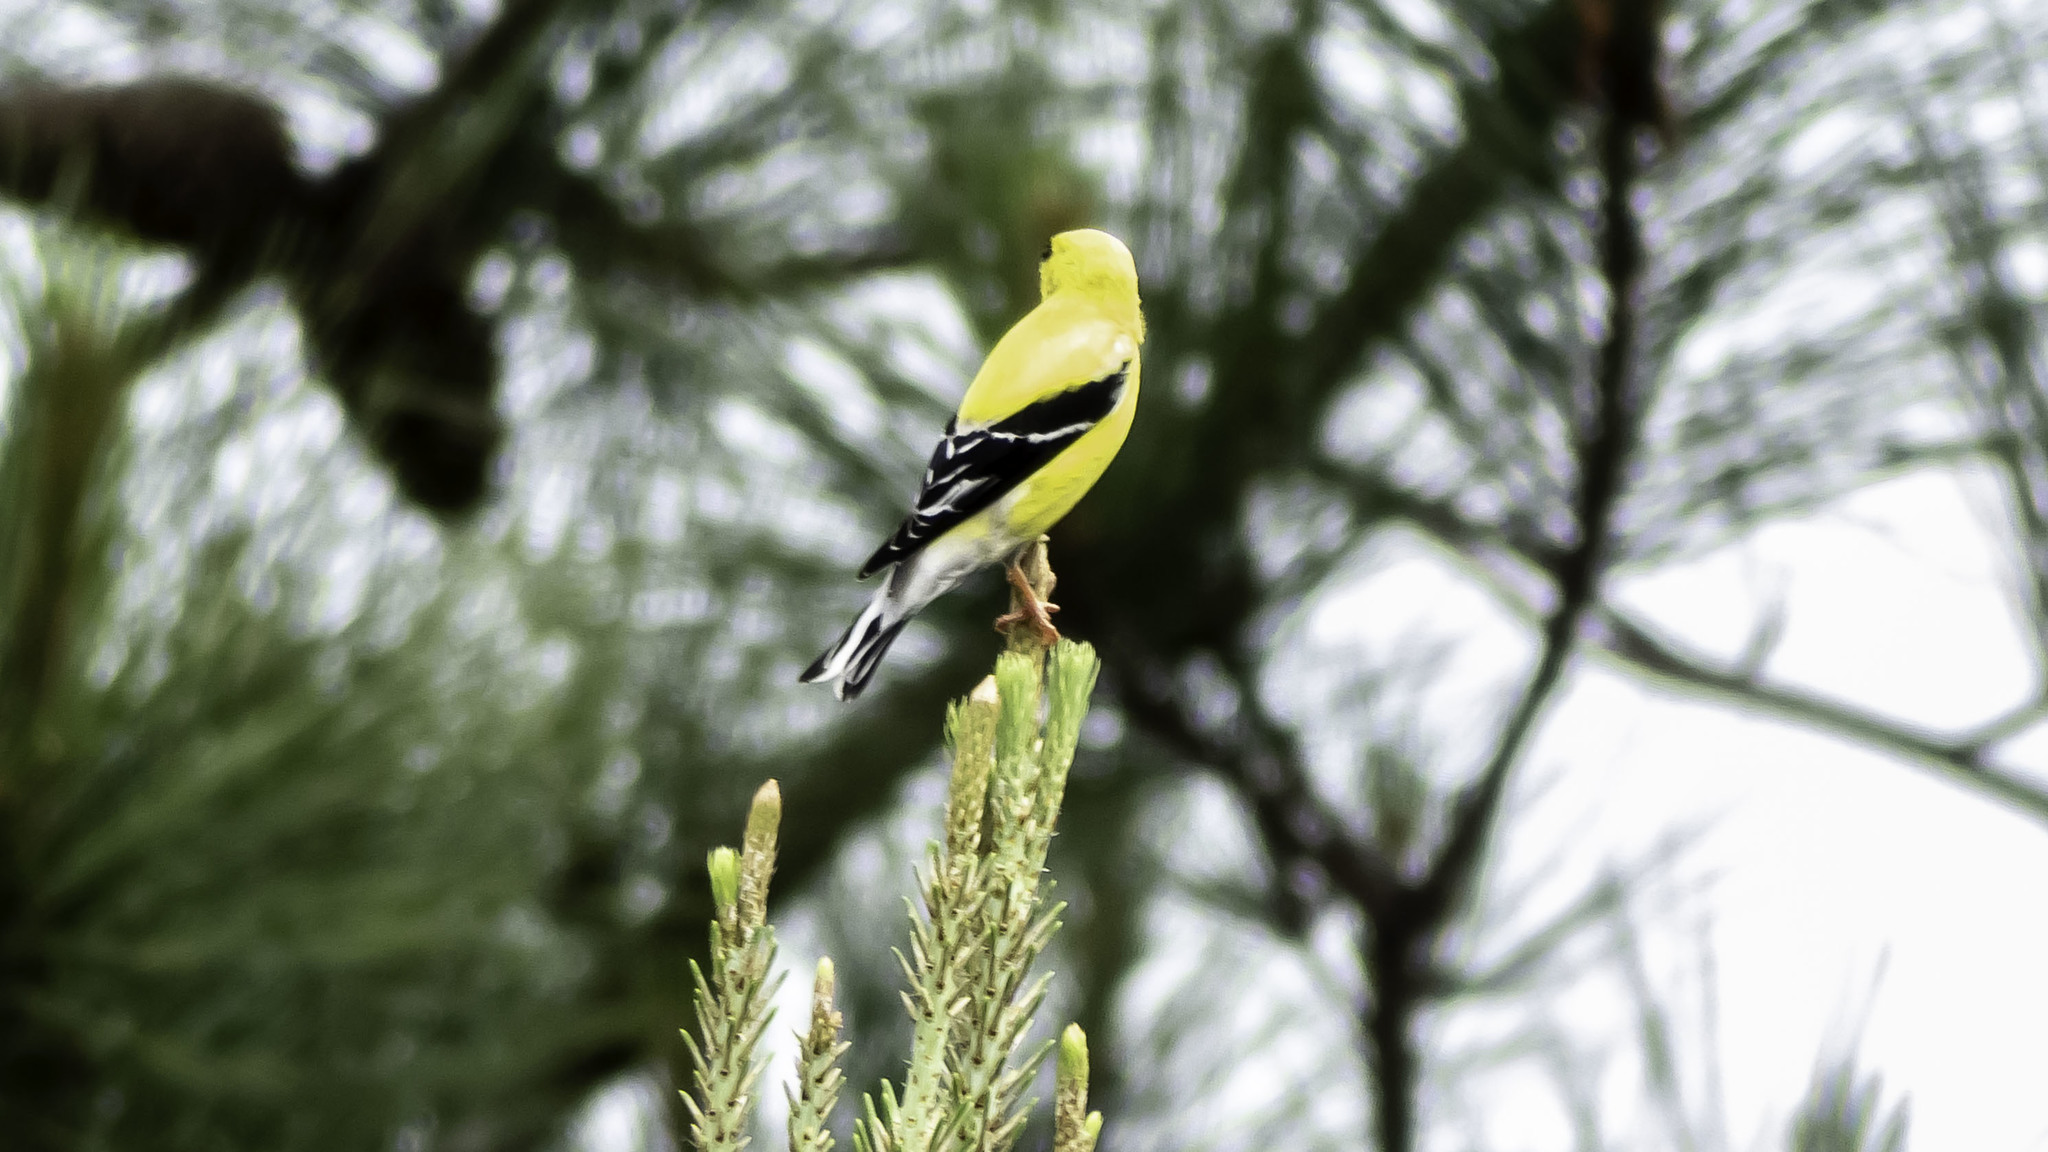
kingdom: Animalia
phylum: Chordata
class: Aves
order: Passeriformes
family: Fringillidae
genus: Spinus
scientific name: Spinus tristis
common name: American goldfinch
